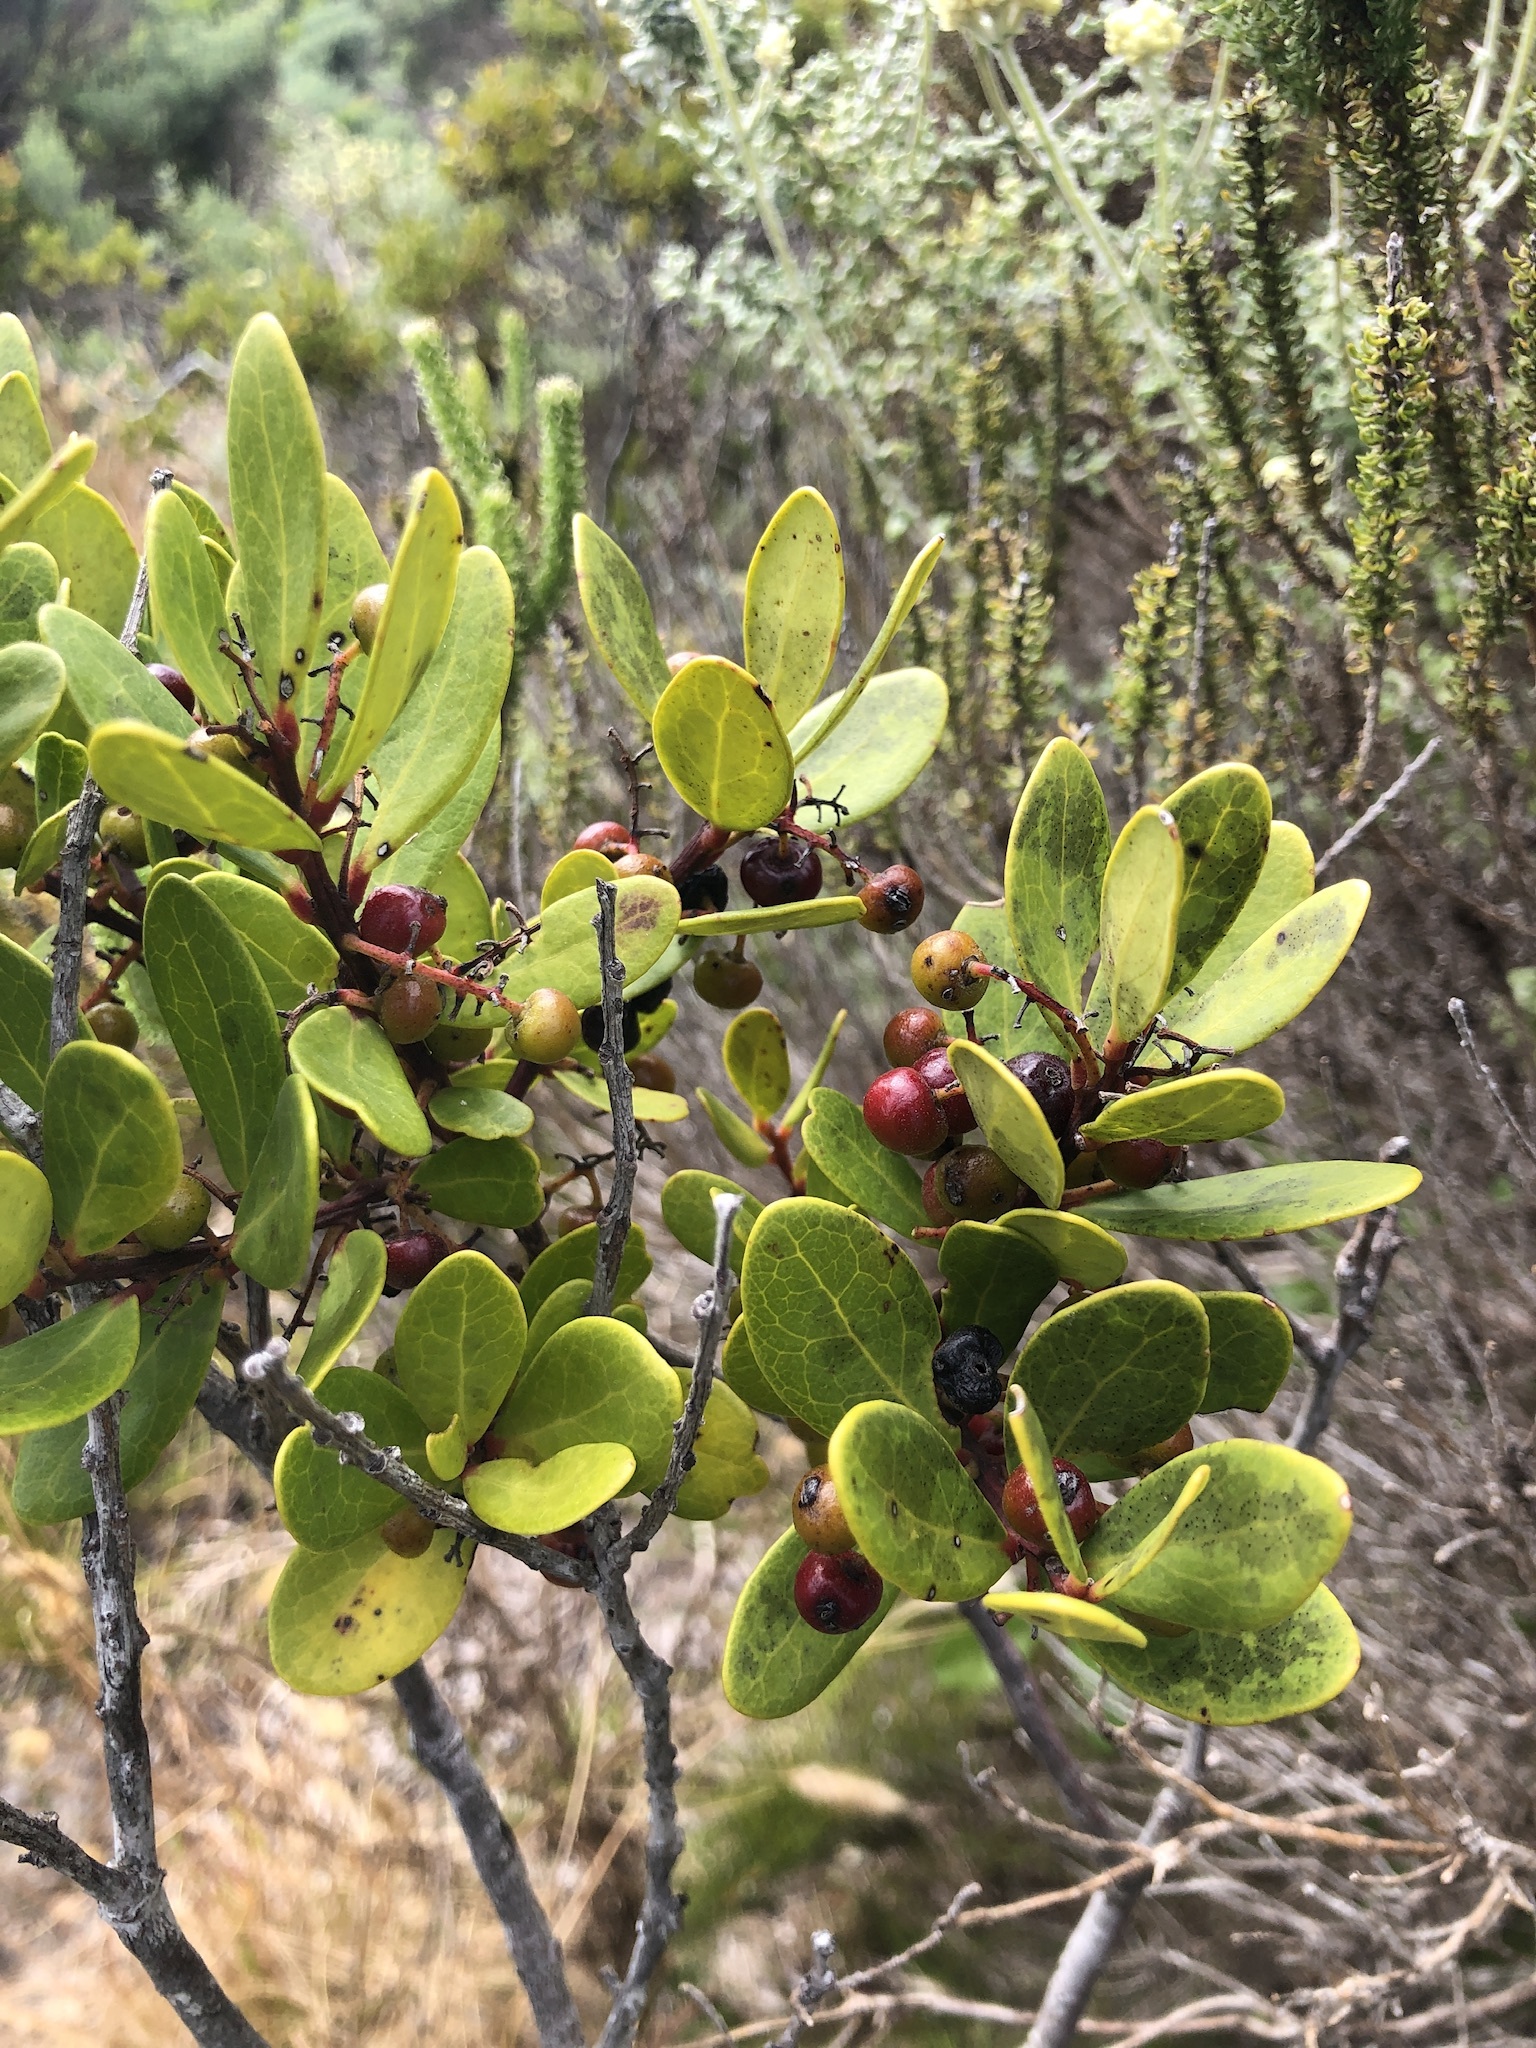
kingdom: Plantae
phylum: Tracheophyta
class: Magnoliopsida
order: Ericales
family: Ebenaceae
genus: Euclea
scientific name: Euclea racemosa
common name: Dune guarri
